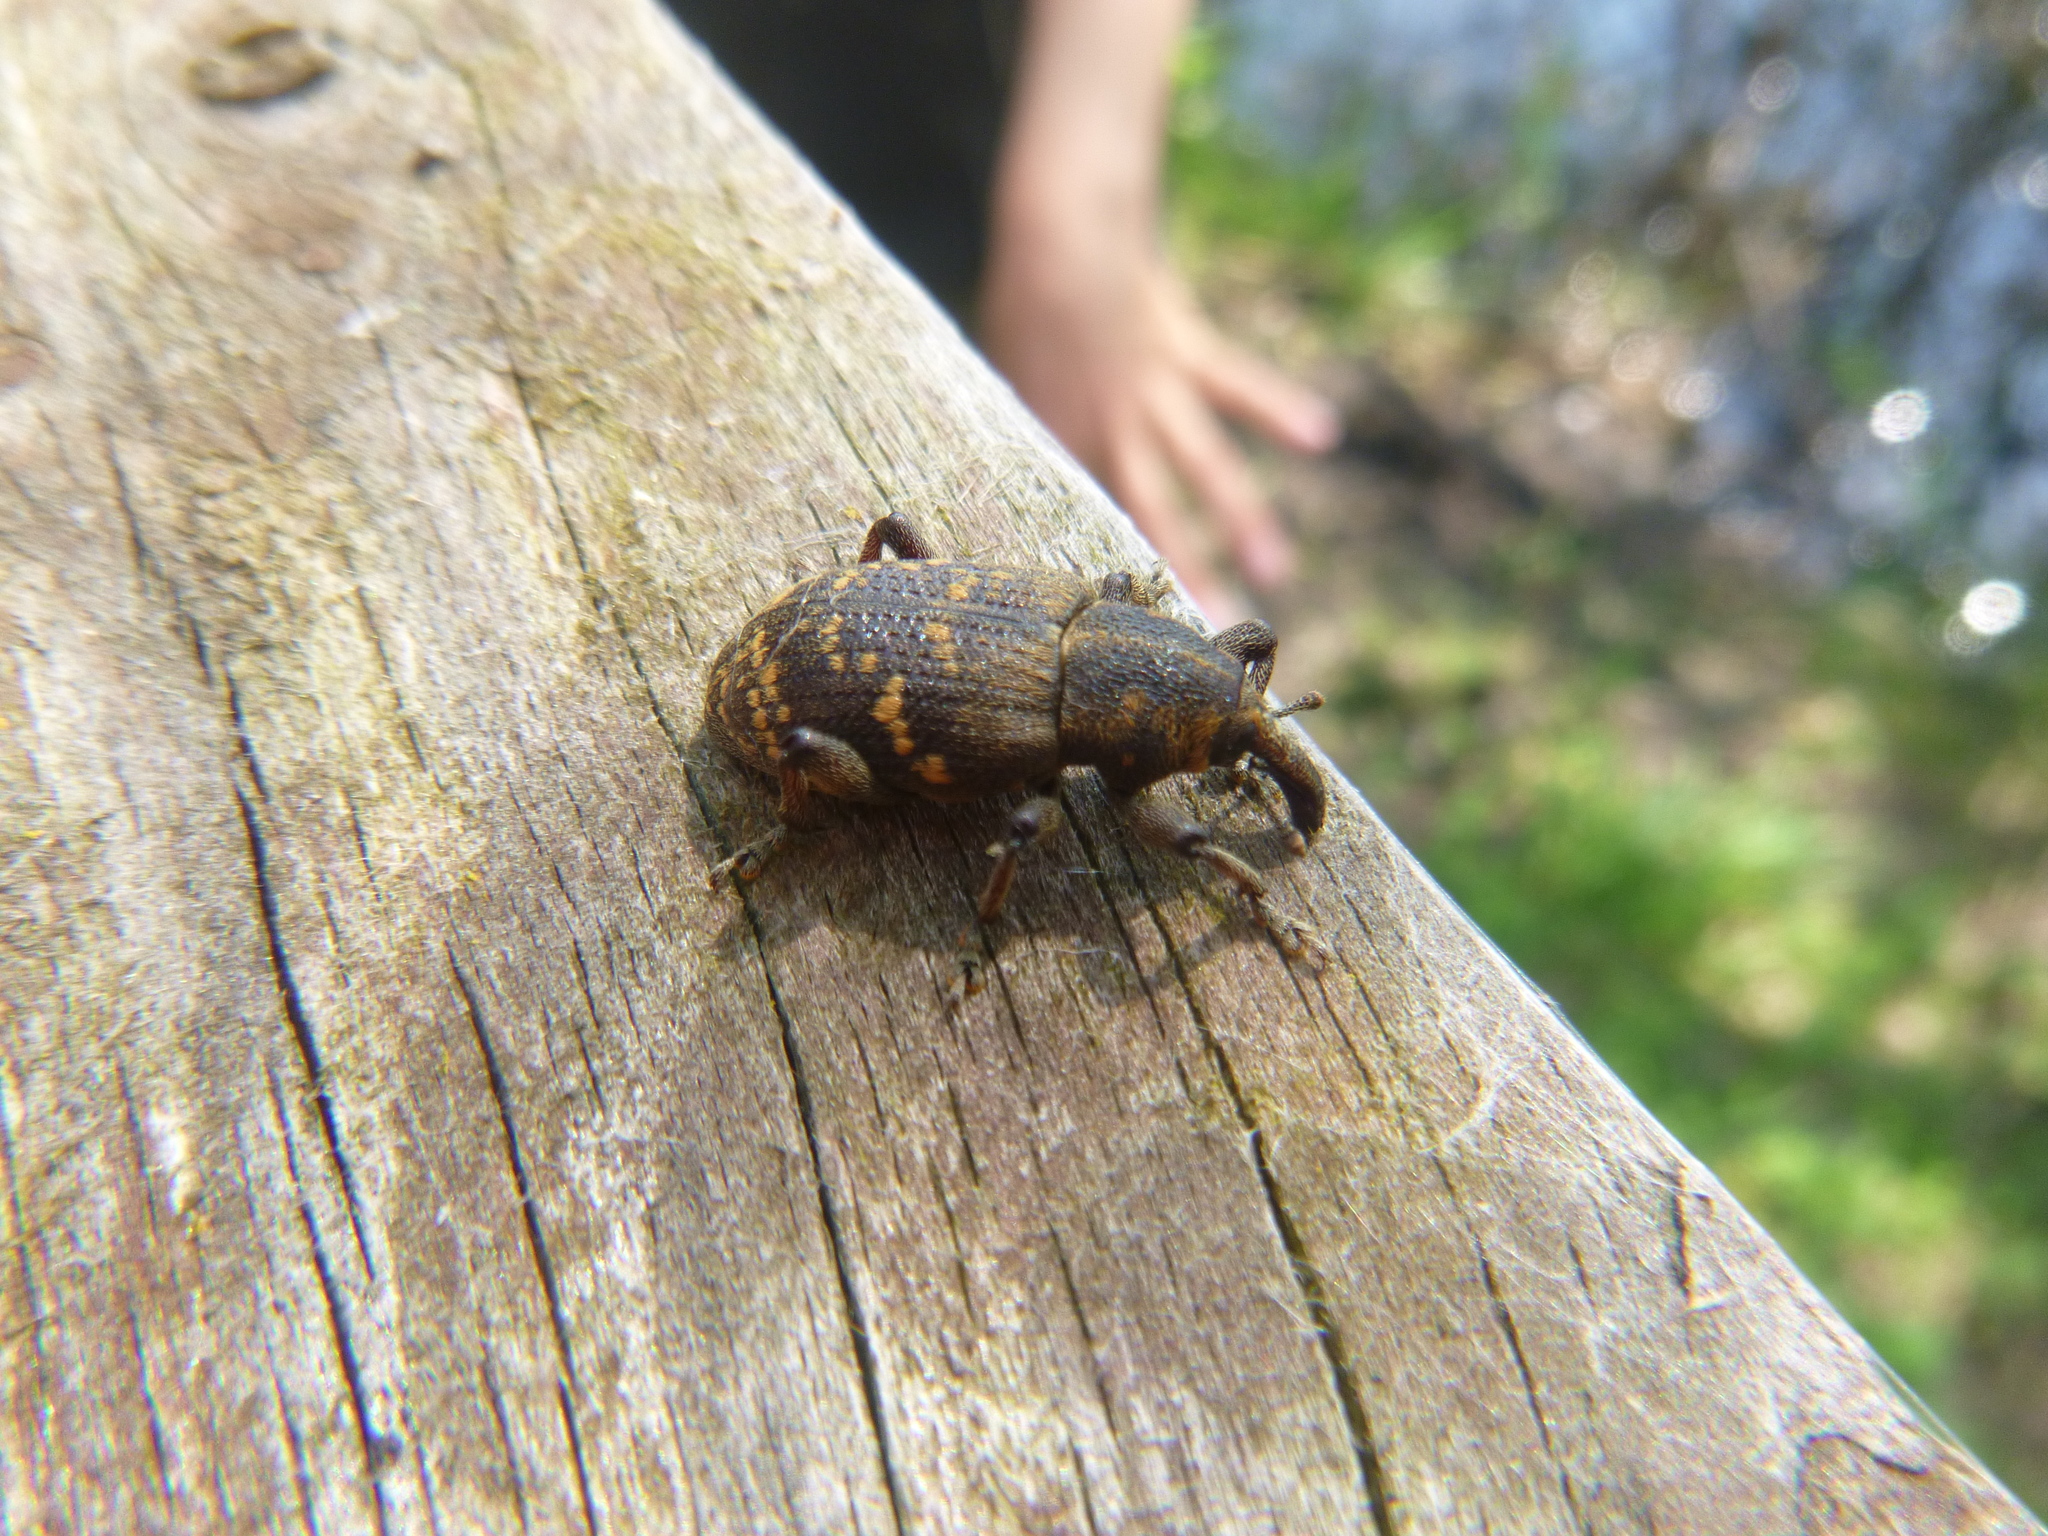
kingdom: Animalia
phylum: Arthropoda
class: Insecta
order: Coleoptera
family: Curculionidae
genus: Hylobius
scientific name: Hylobius abietis
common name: Large pine weevil
